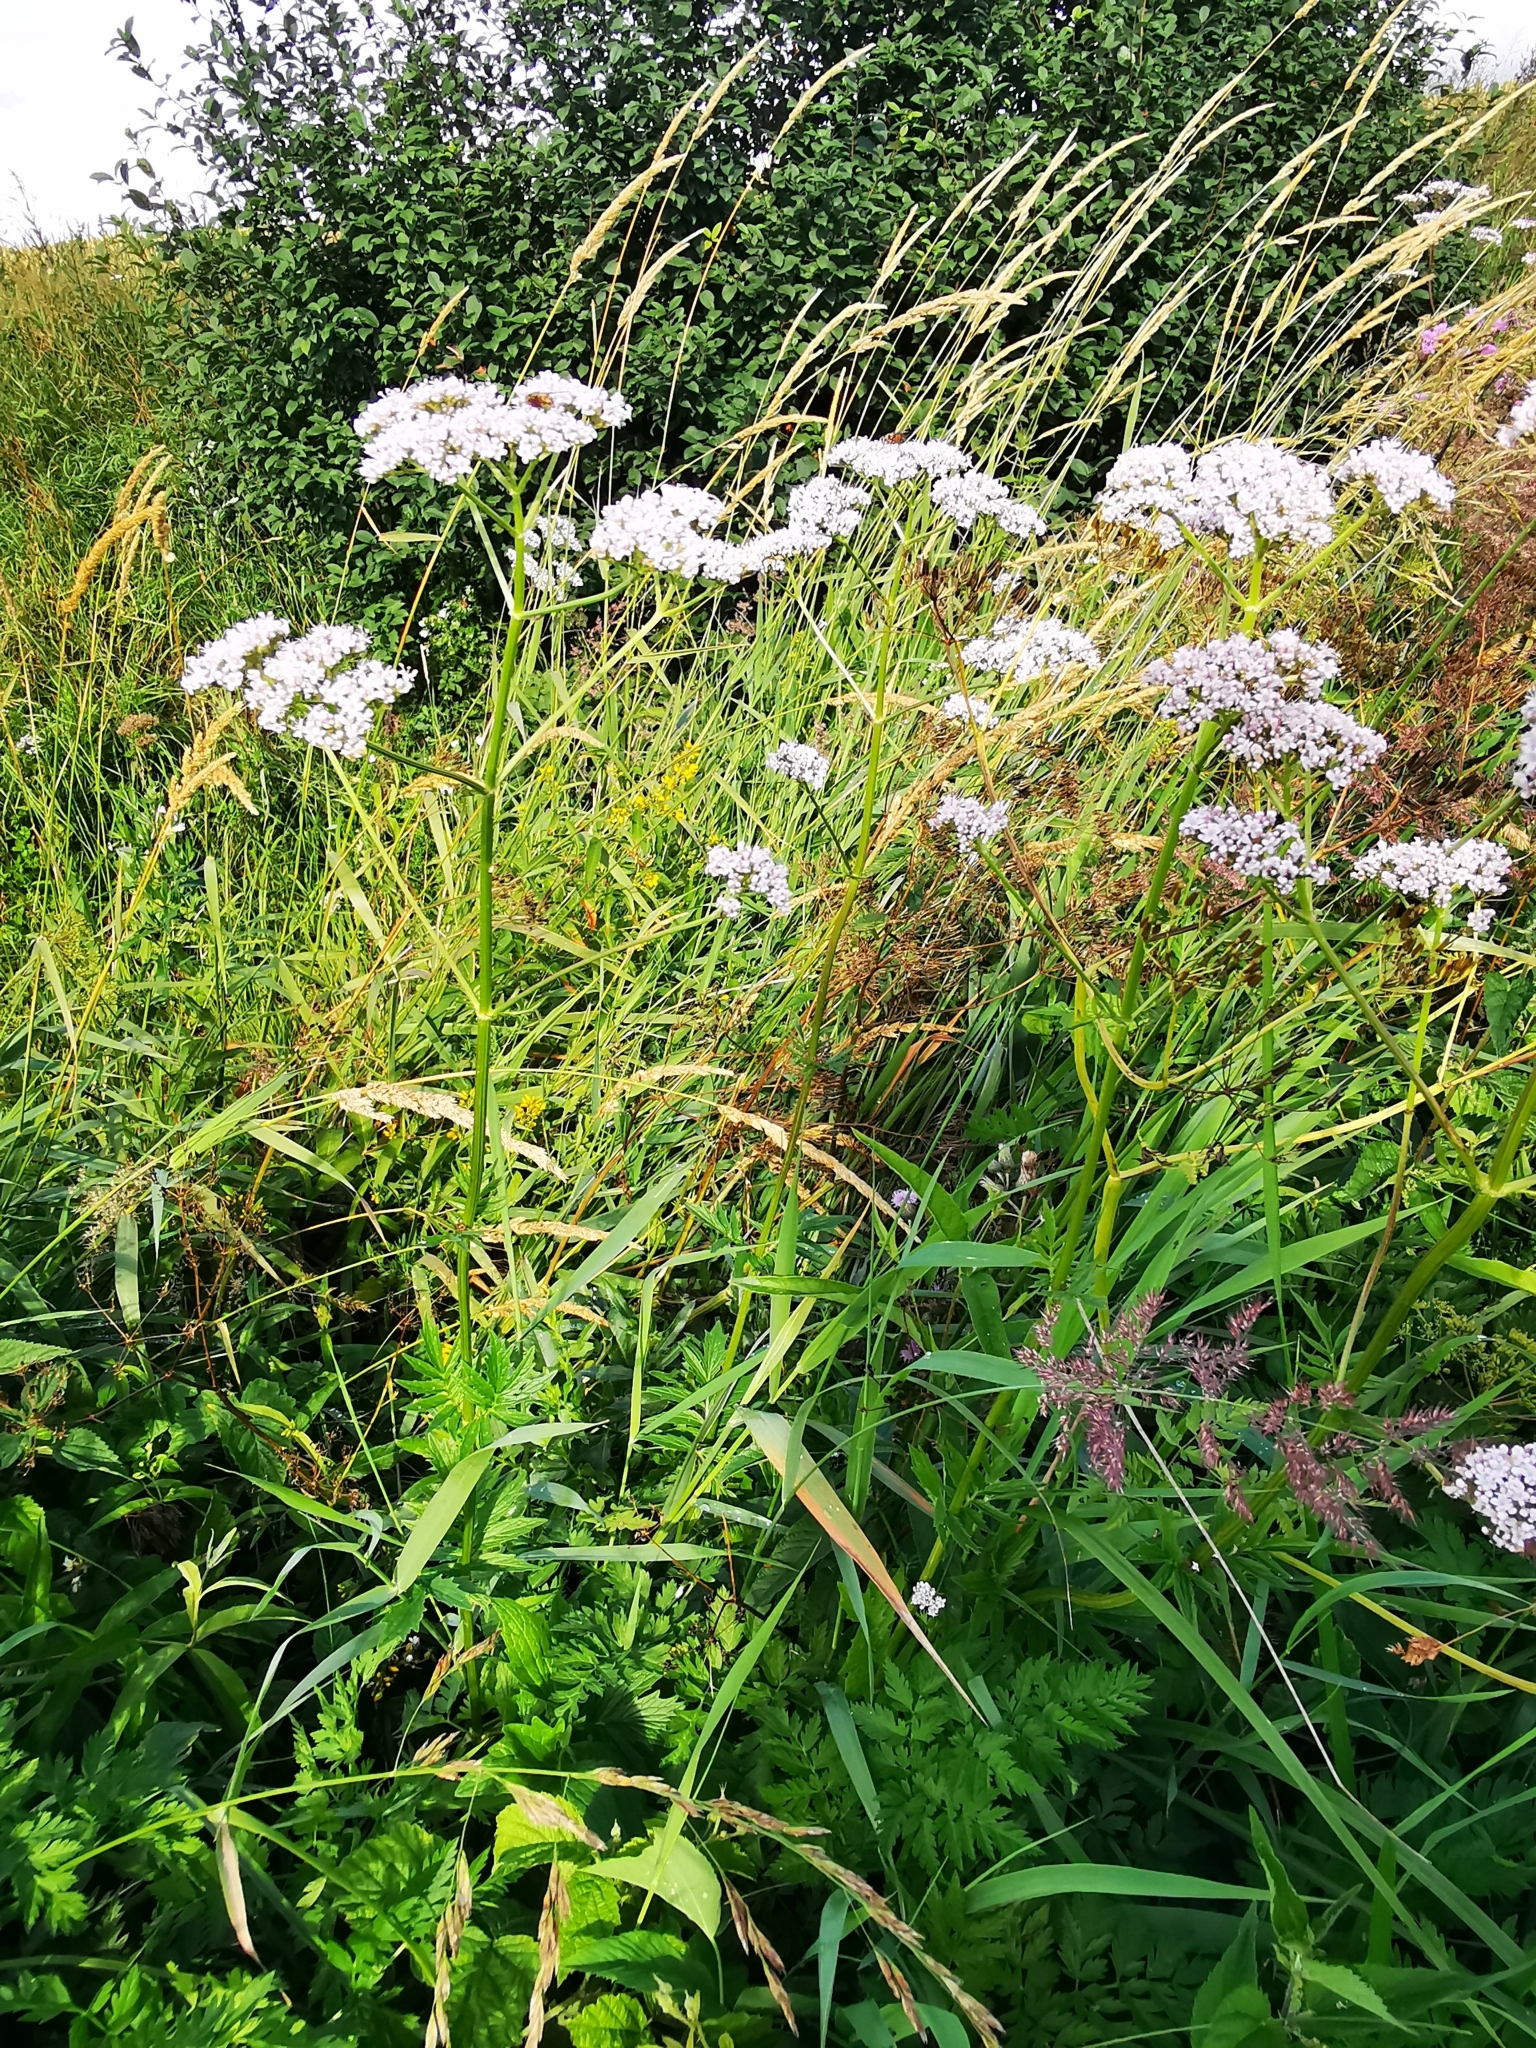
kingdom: Plantae
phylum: Tracheophyta
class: Magnoliopsida
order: Dipsacales
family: Caprifoliaceae
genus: Valeriana
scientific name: Valeriana officinalis
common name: Common valerian
